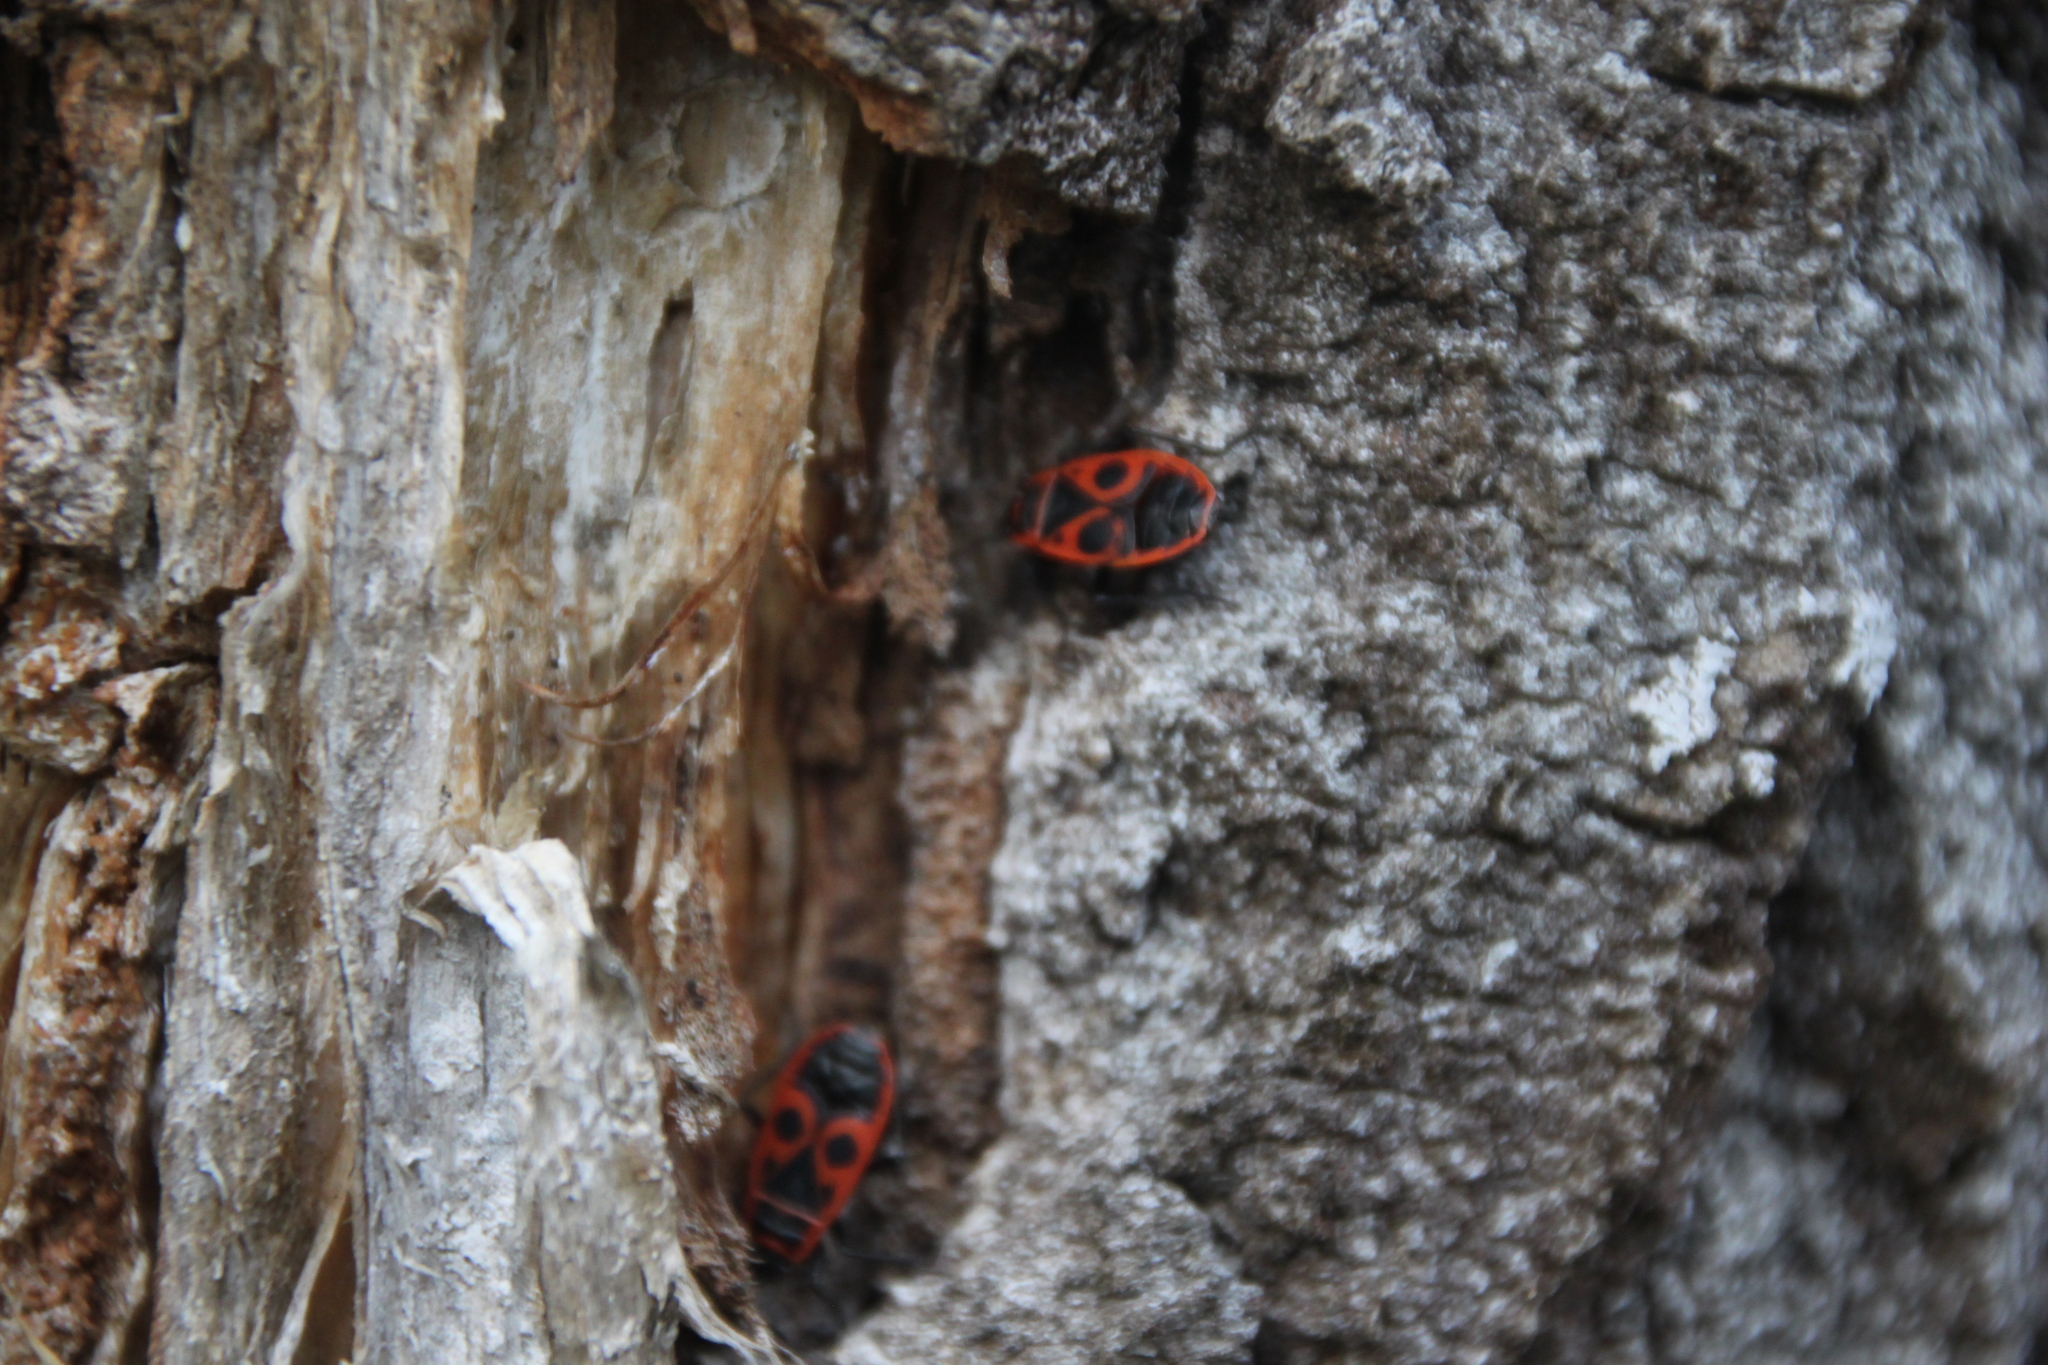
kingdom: Animalia
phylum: Arthropoda
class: Insecta
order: Hemiptera
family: Pyrrhocoridae
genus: Pyrrhocoris
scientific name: Pyrrhocoris apterus
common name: Firebug
